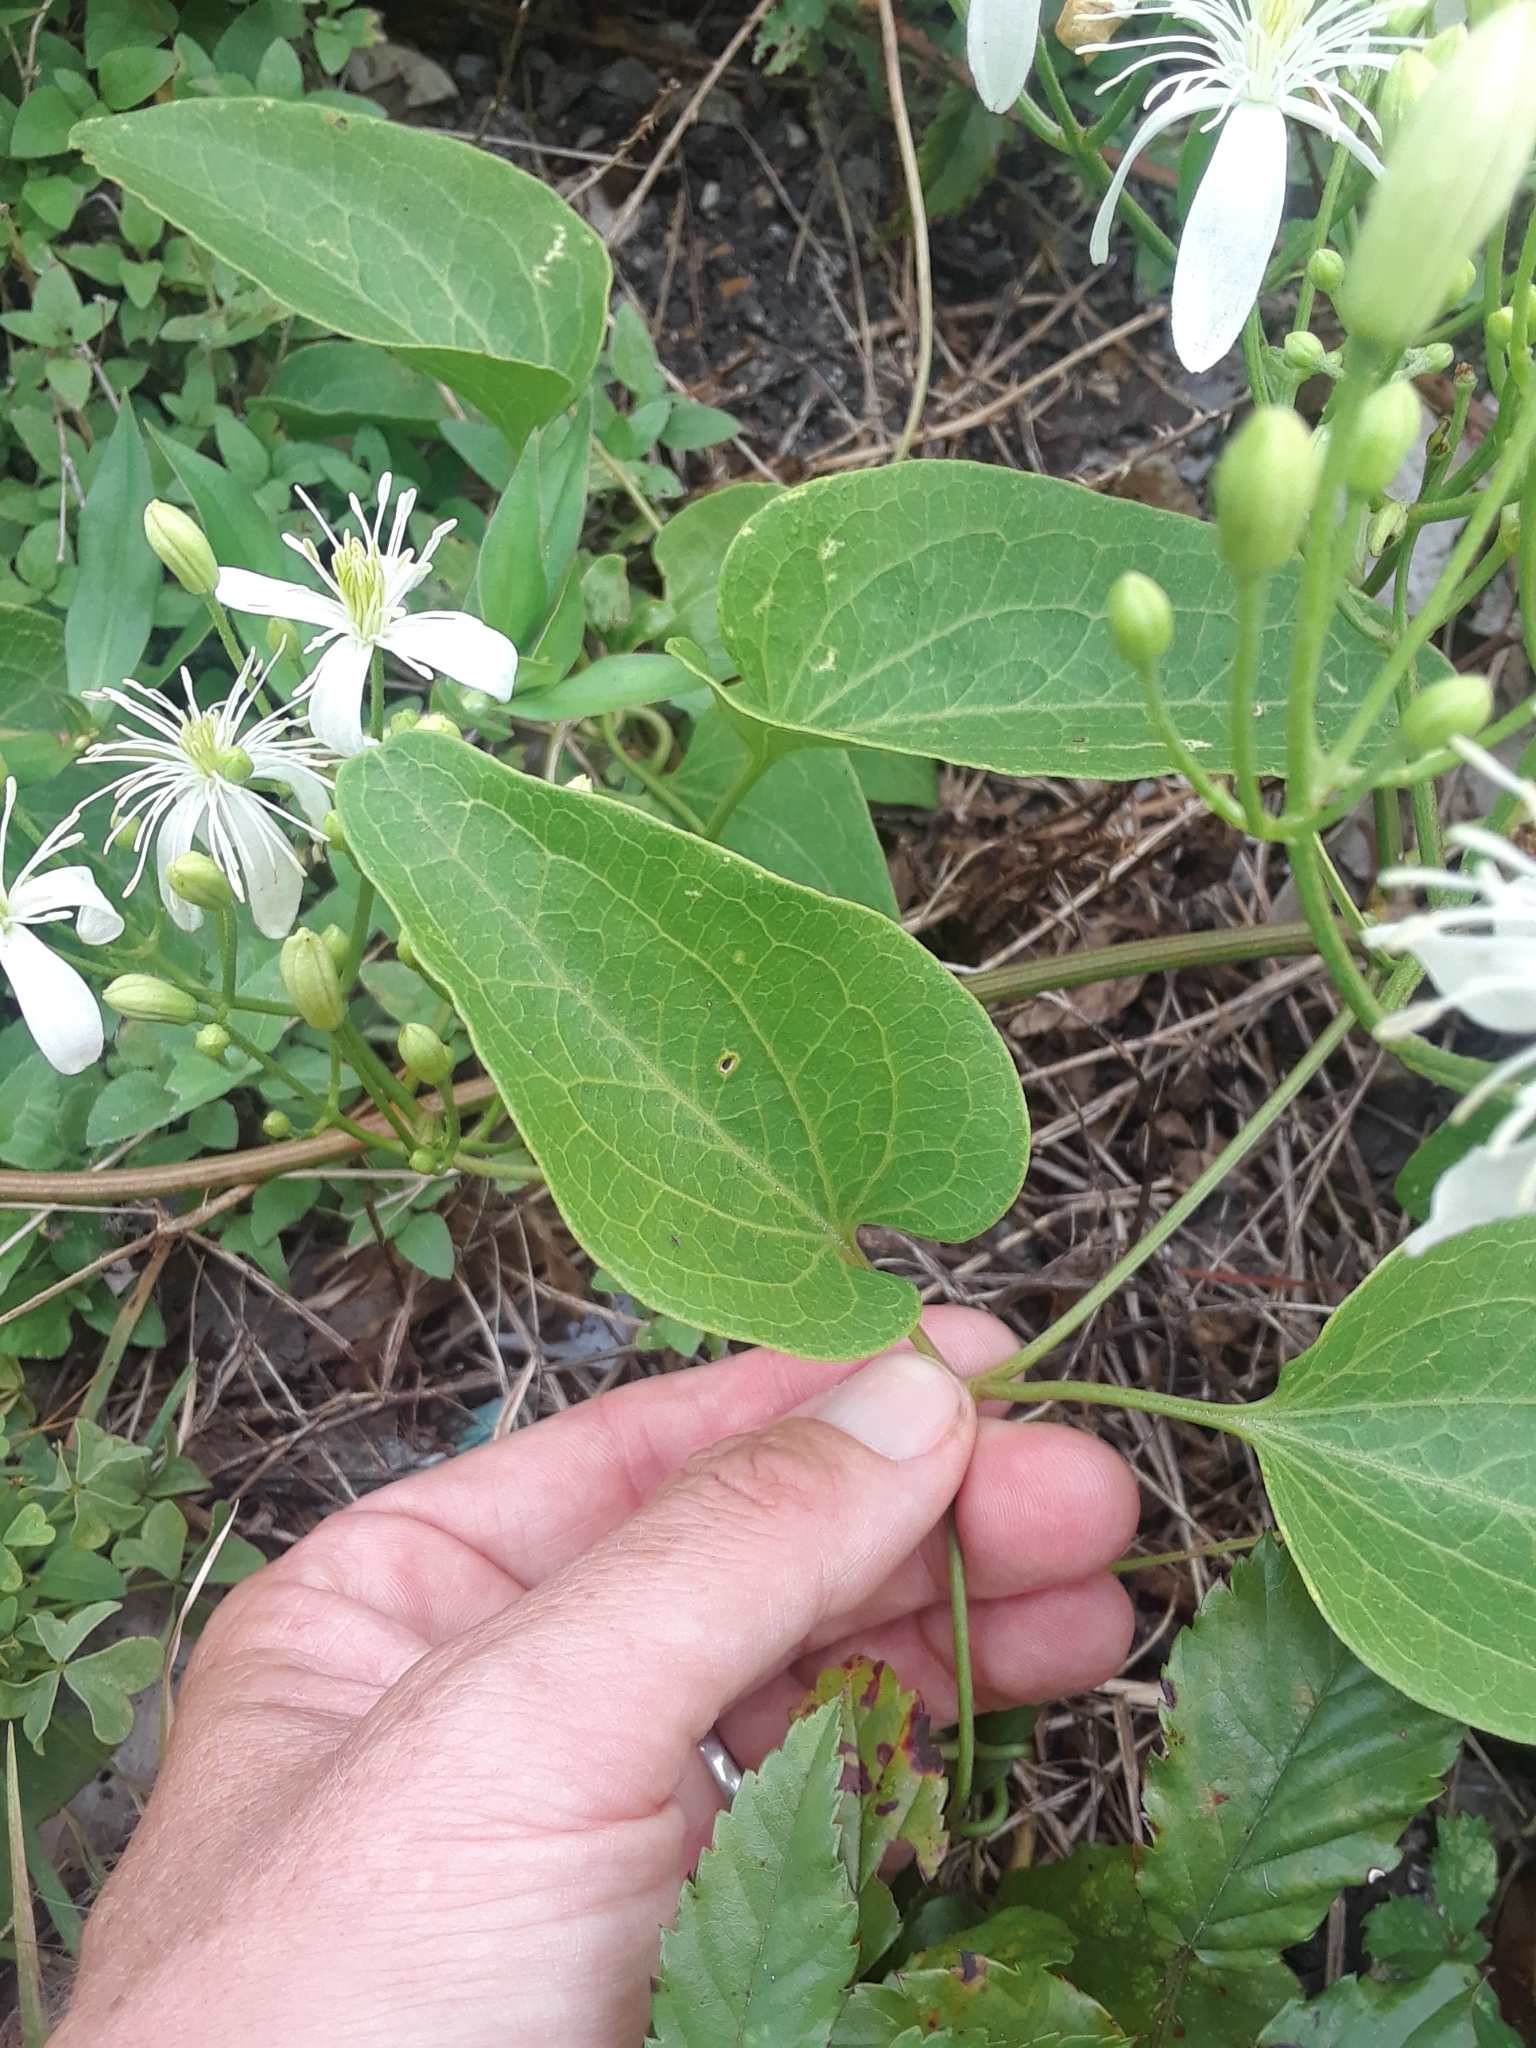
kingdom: Plantae
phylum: Tracheophyta
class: Magnoliopsida
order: Ranunculales
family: Ranunculaceae
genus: Clematis
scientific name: Clematis terniflora
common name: Sweet autumn clematis
